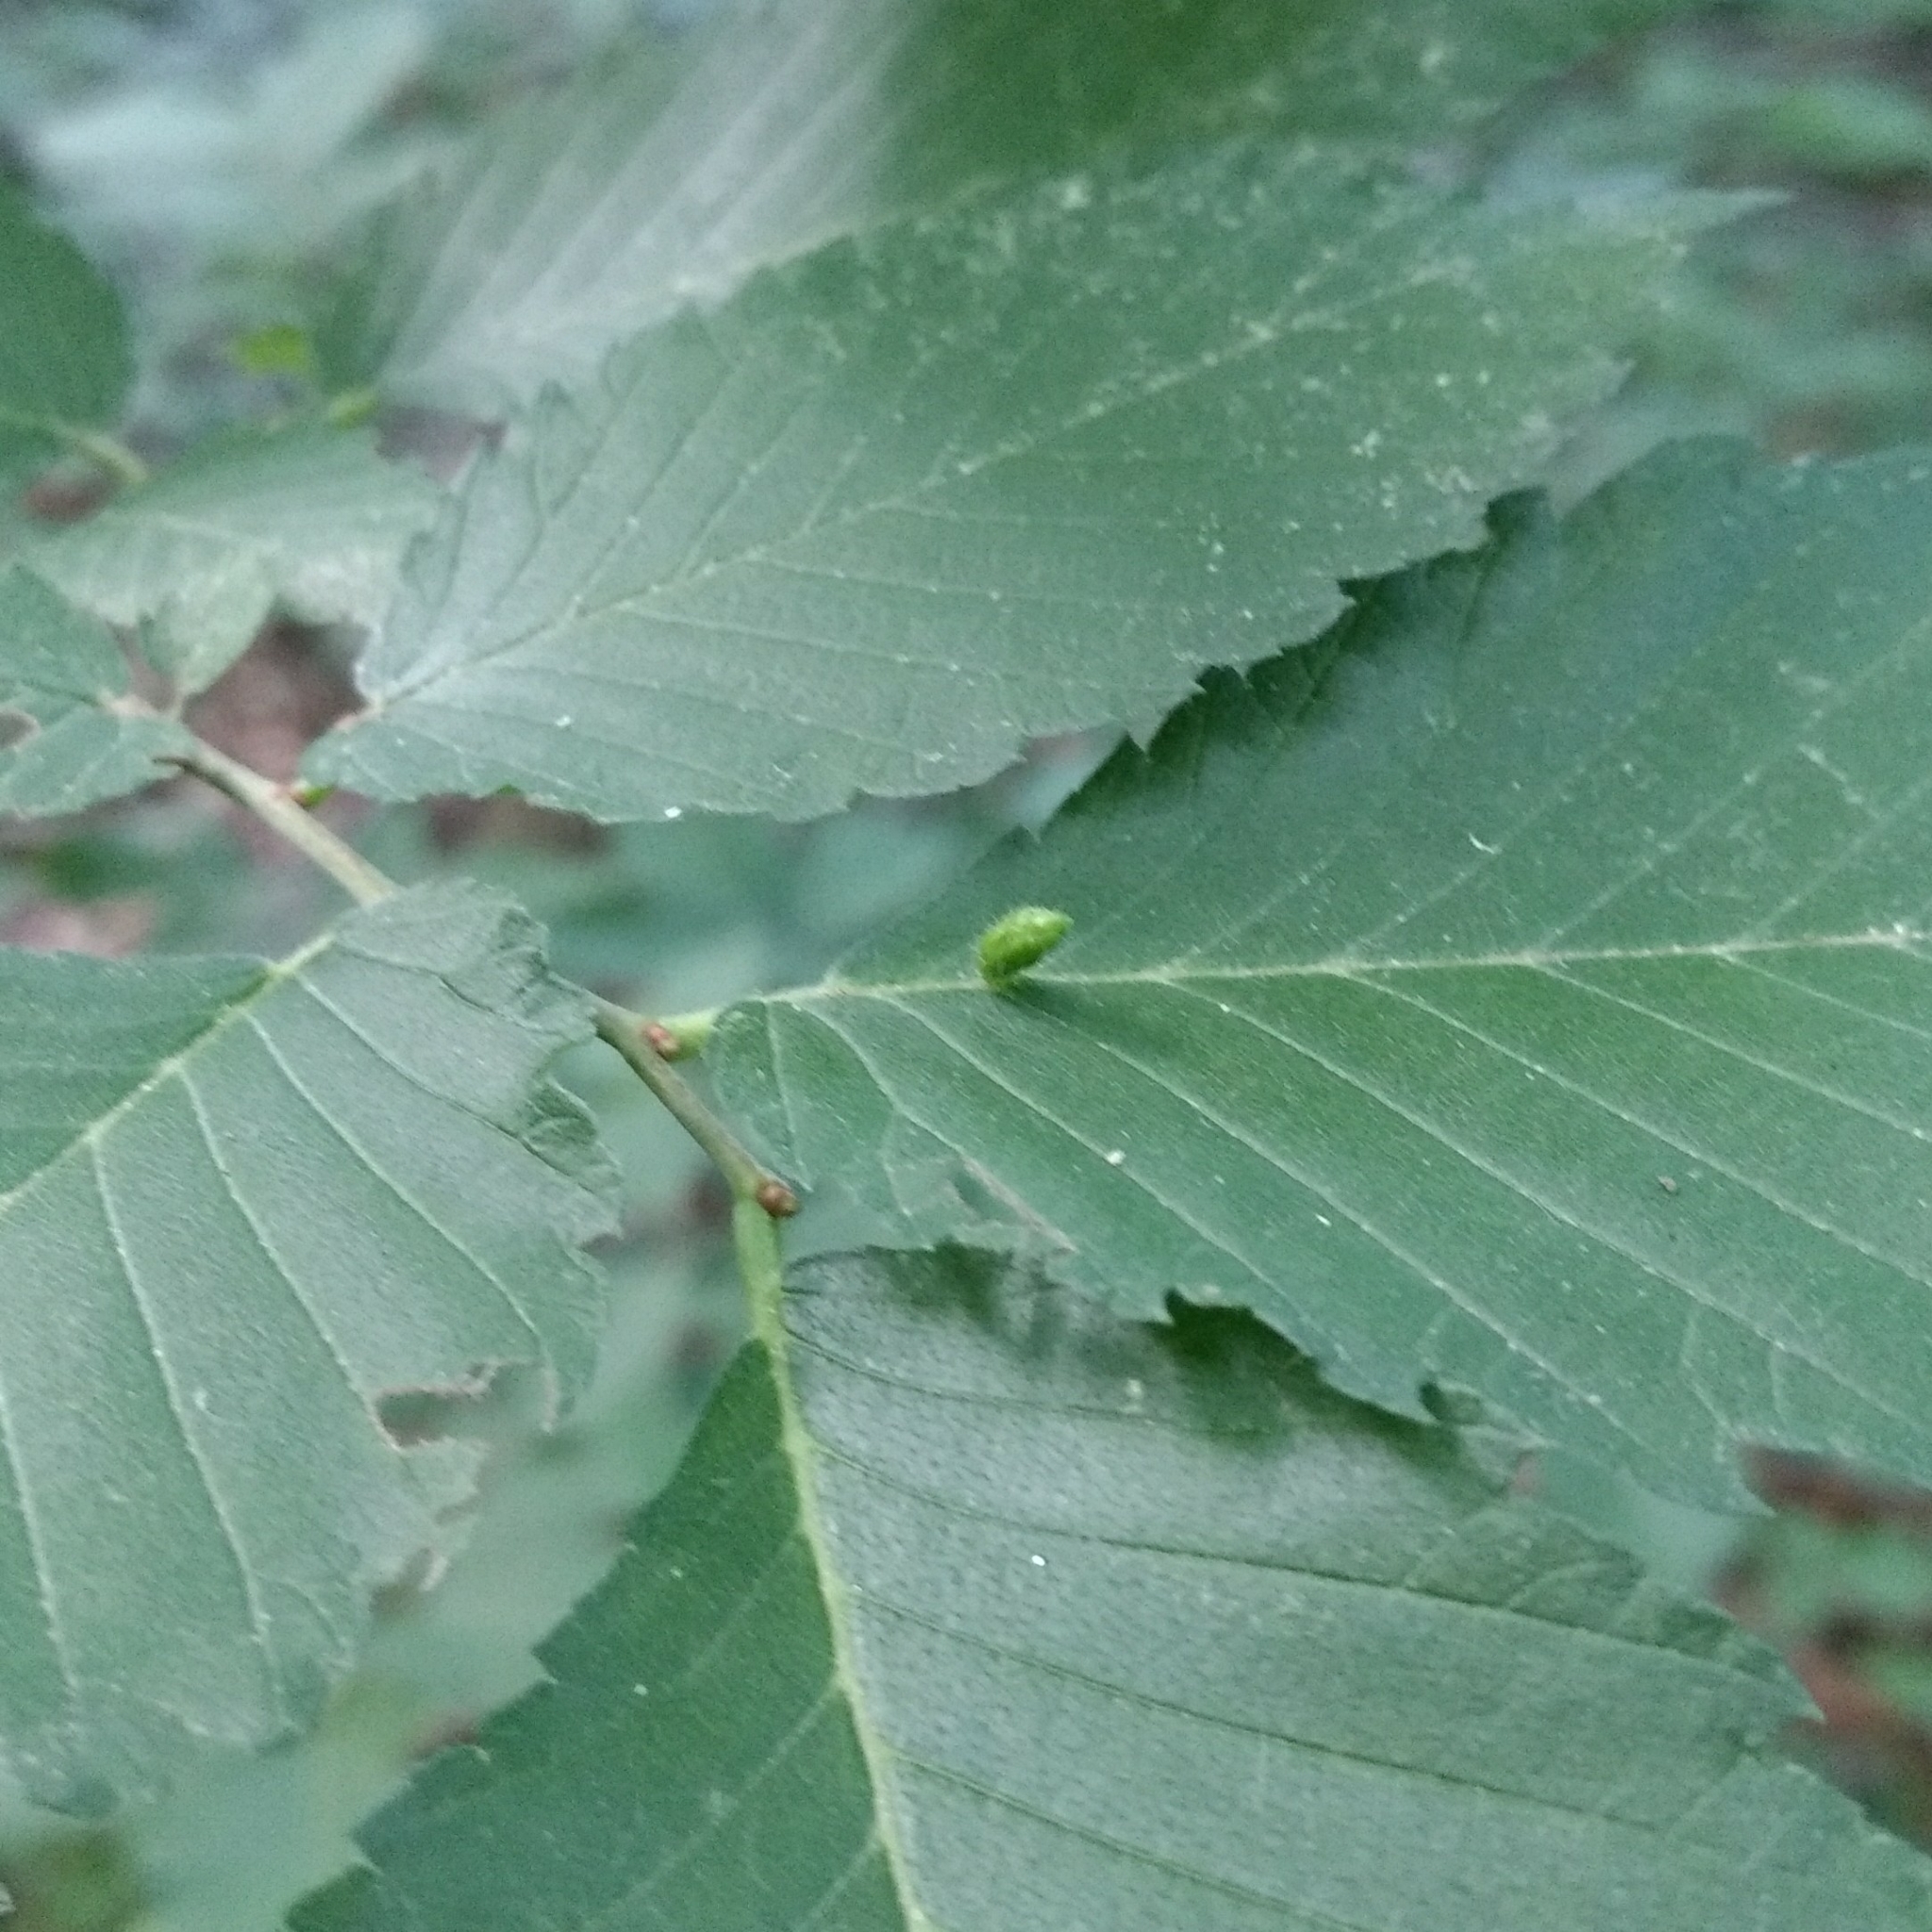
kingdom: Animalia
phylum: Arthropoda
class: Arachnida
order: Trombidiformes
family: Eriophyidae
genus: Aceria
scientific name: Aceria
